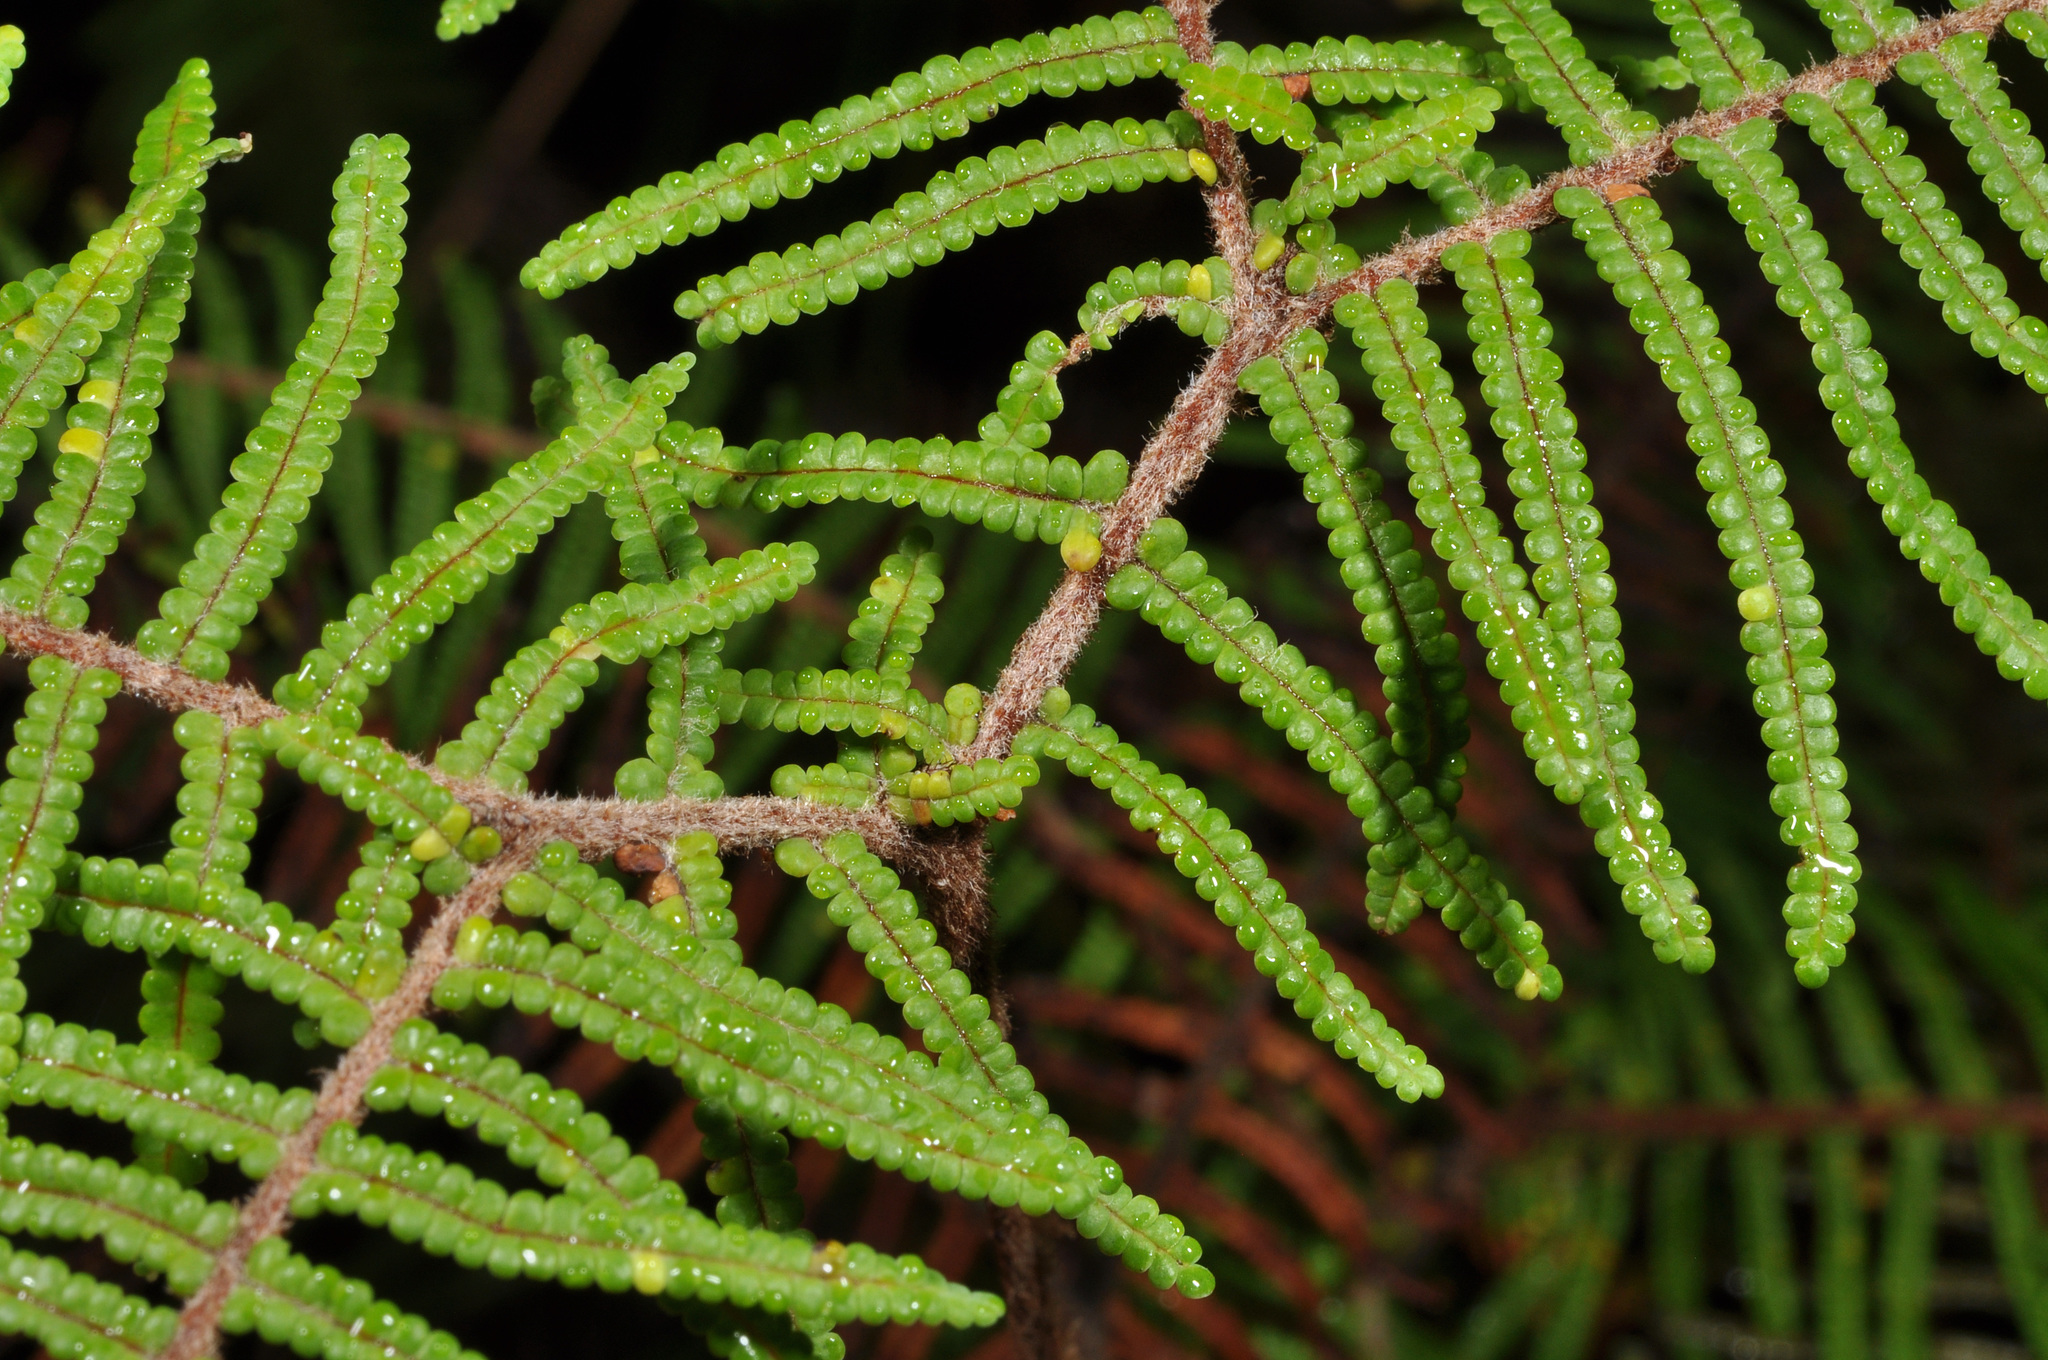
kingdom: Plantae
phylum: Tracheophyta
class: Polypodiopsida
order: Gleicheniales
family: Gleicheniaceae
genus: Gleichenia
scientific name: Gleichenia dicarpa
